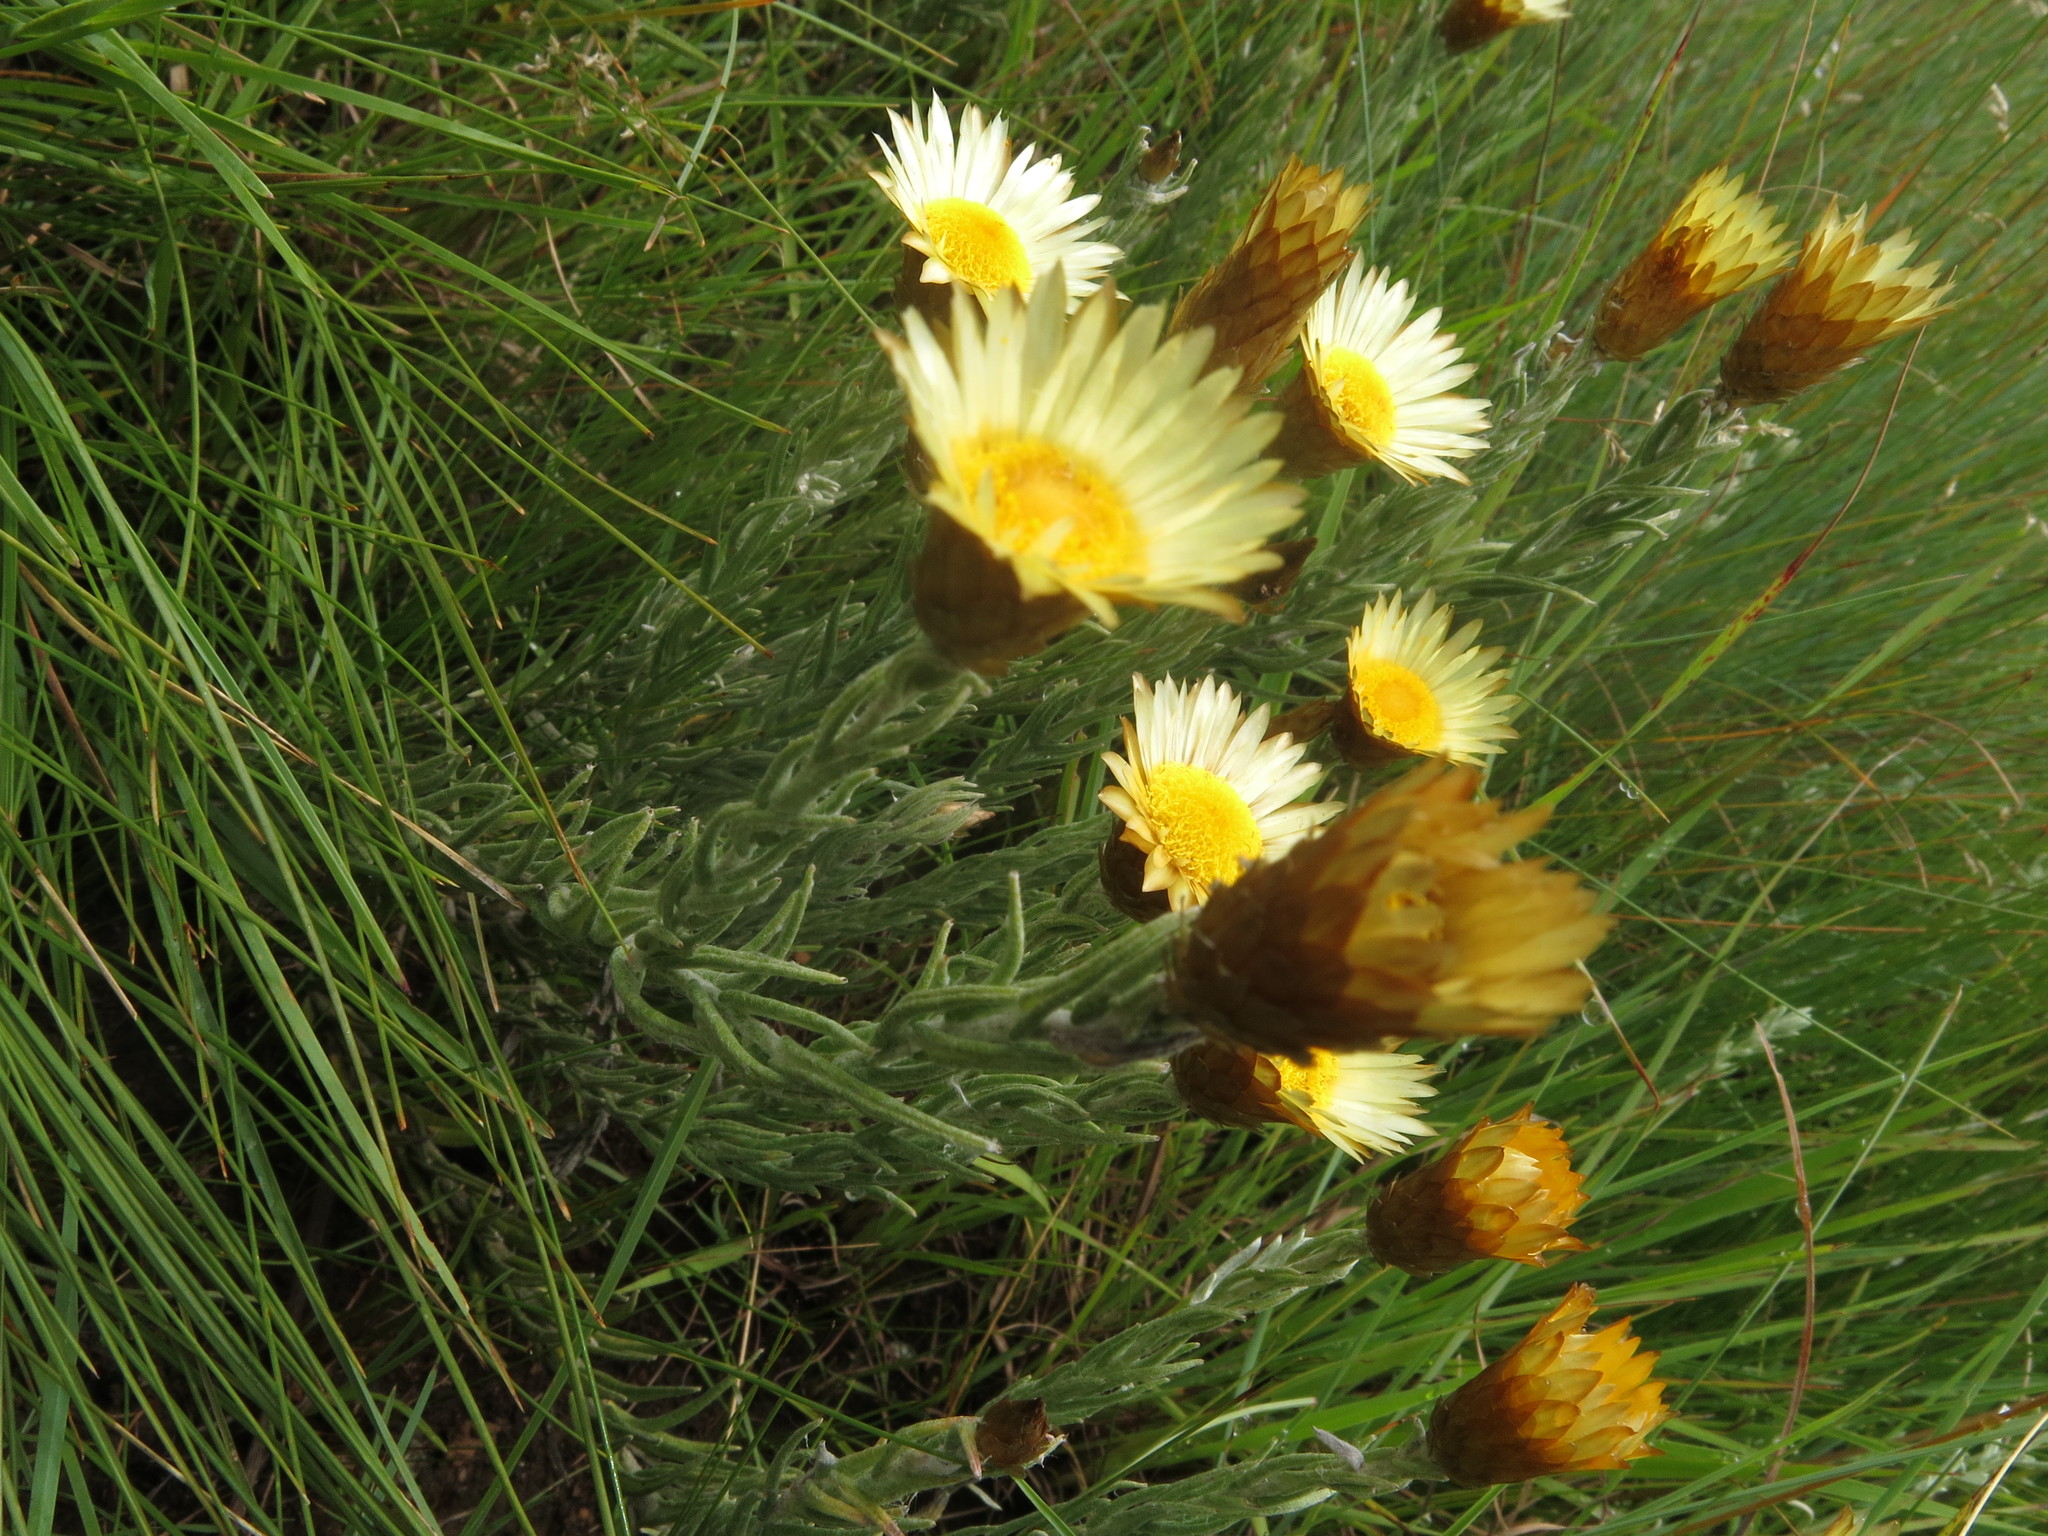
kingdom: Plantae
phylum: Tracheophyta
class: Magnoliopsida
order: Asterales
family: Asteraceae
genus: Helichrysum
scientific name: Helichrysum herbaceum
